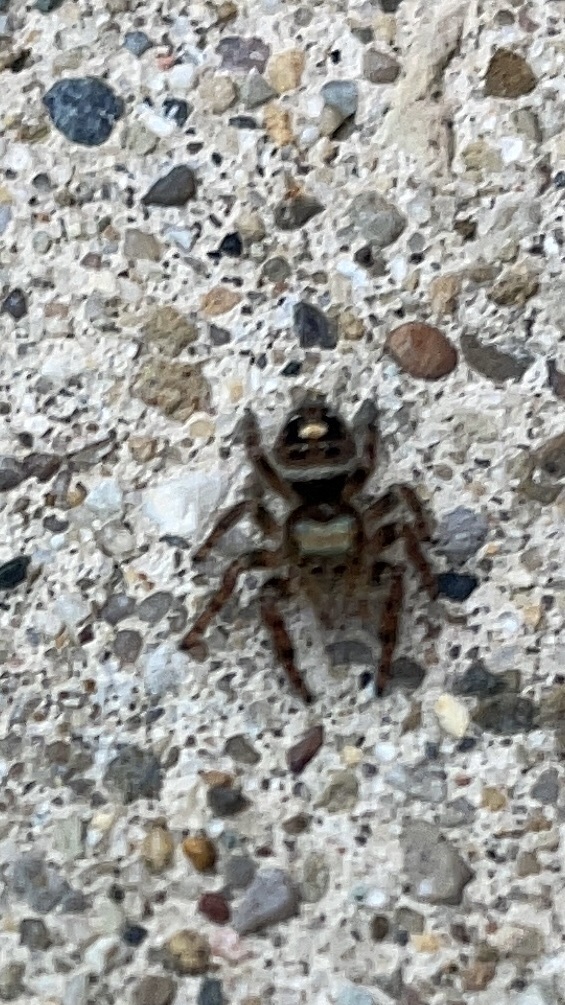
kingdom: Animalia
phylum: Arthropoda
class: Arachnida
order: Araneae
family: Salticidae
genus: Phidippus
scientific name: Phidippus audax
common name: Bold jumper
